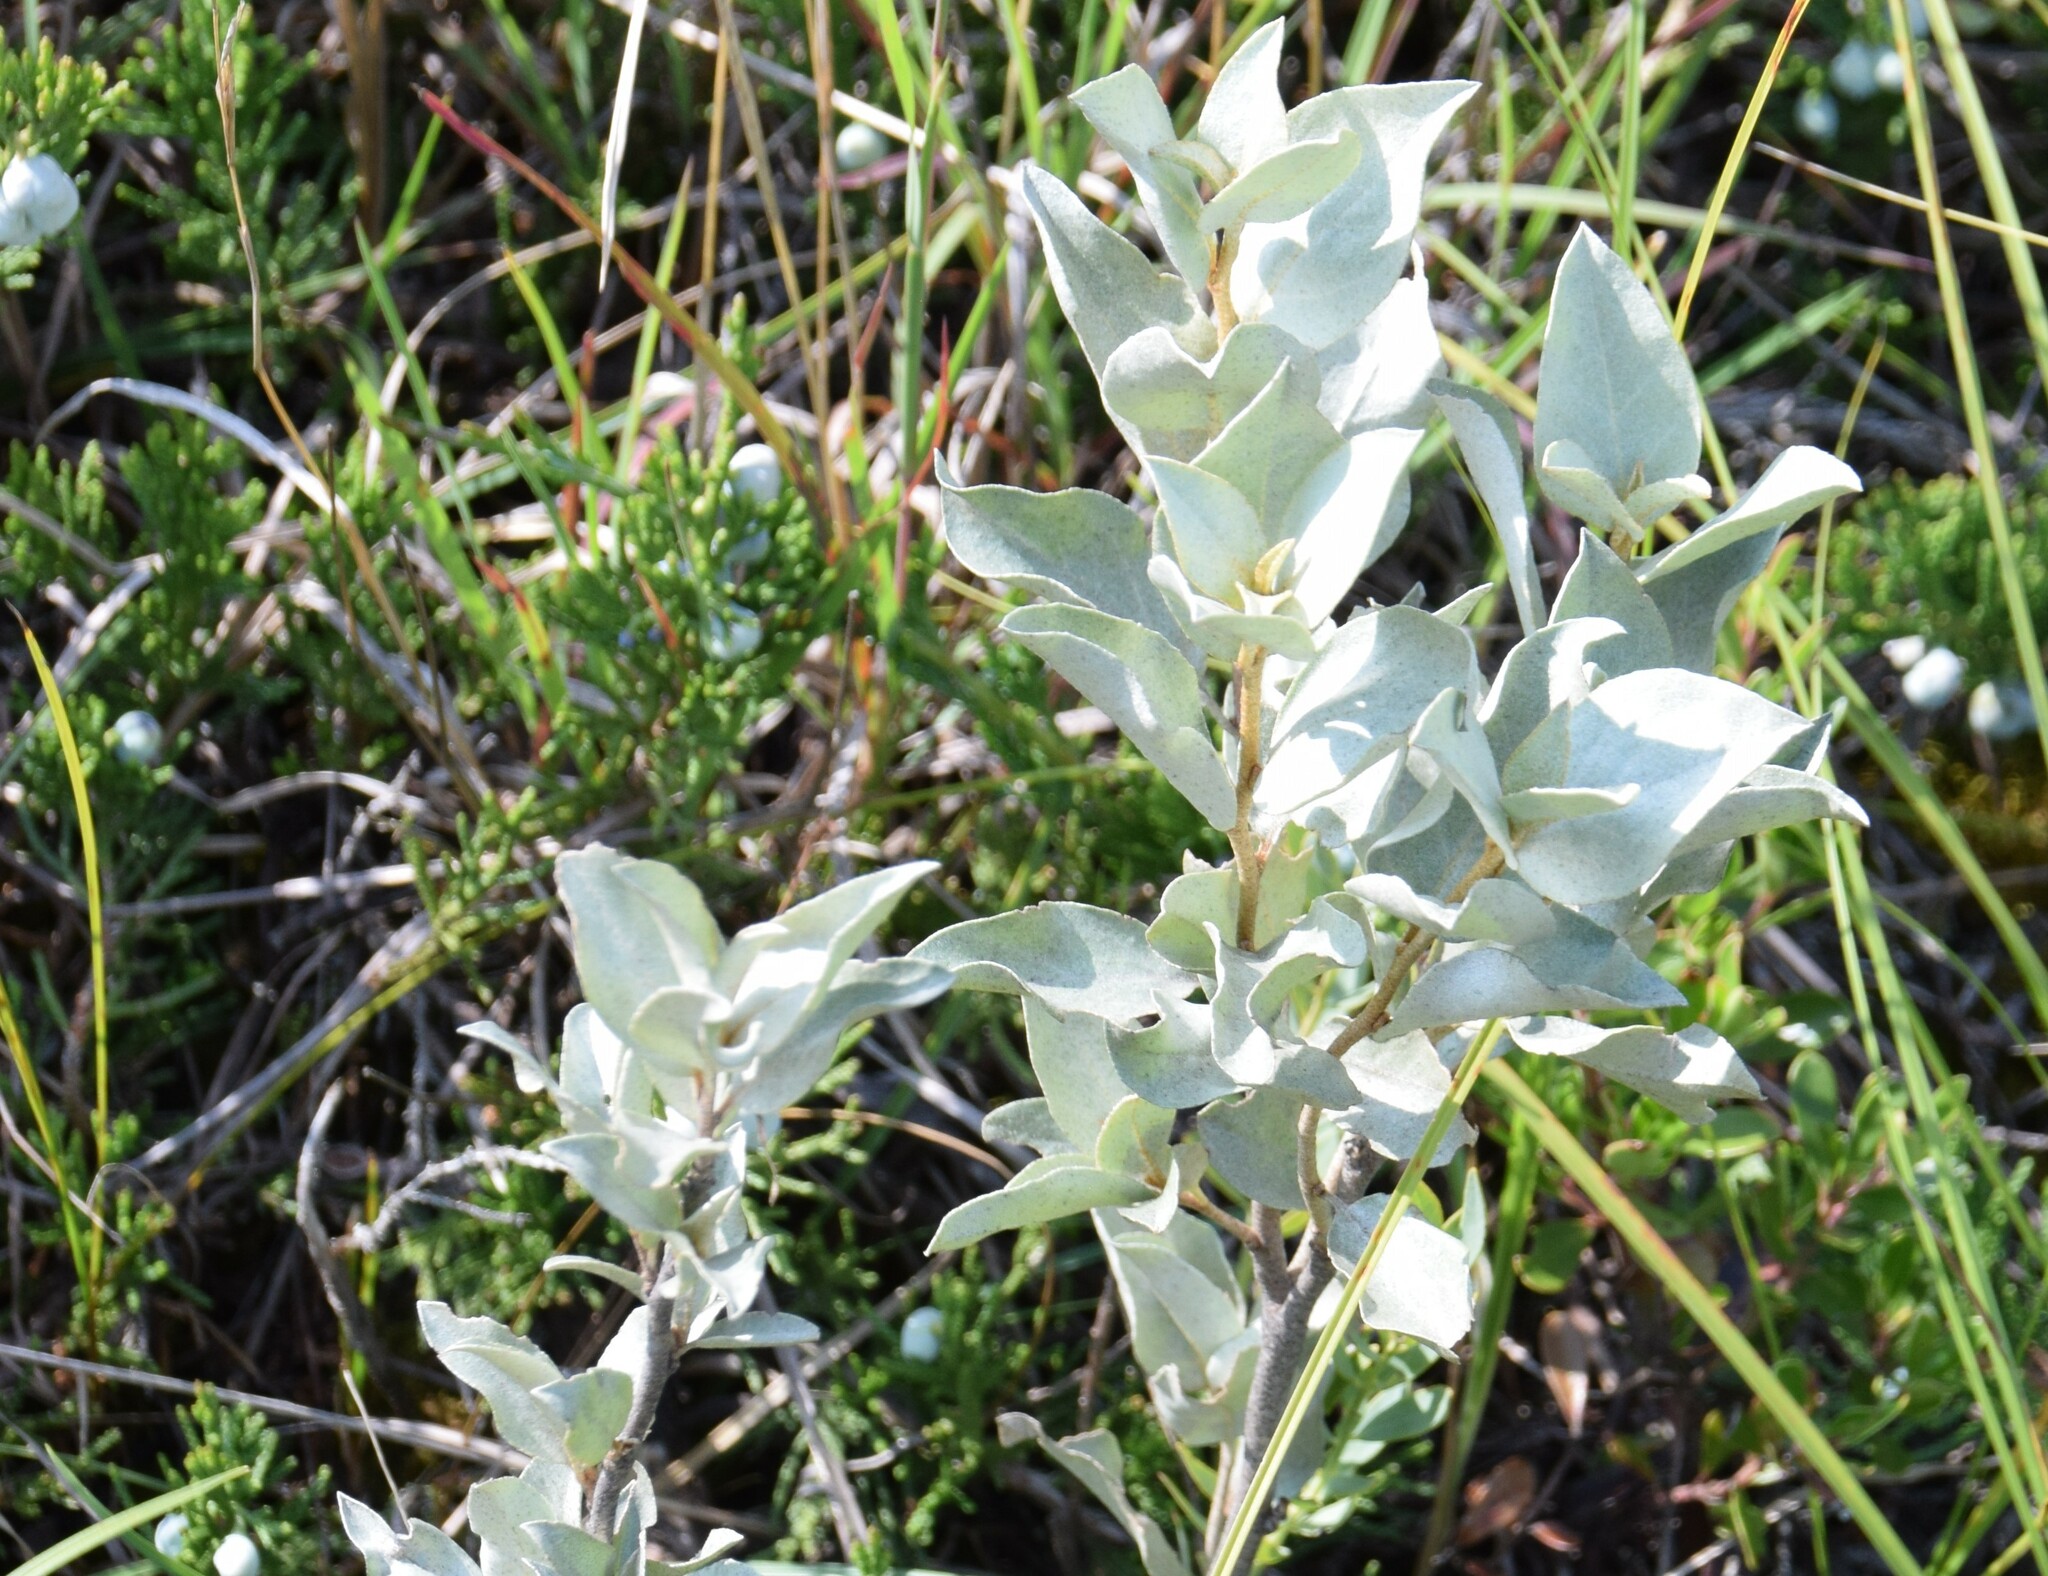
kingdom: Plantae
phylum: Tracheophyta
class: Magnoliopsida
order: Rosales
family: Elaeagnaceae
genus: Elaeagnus
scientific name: Elaeagnus commutata
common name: Silverberry
